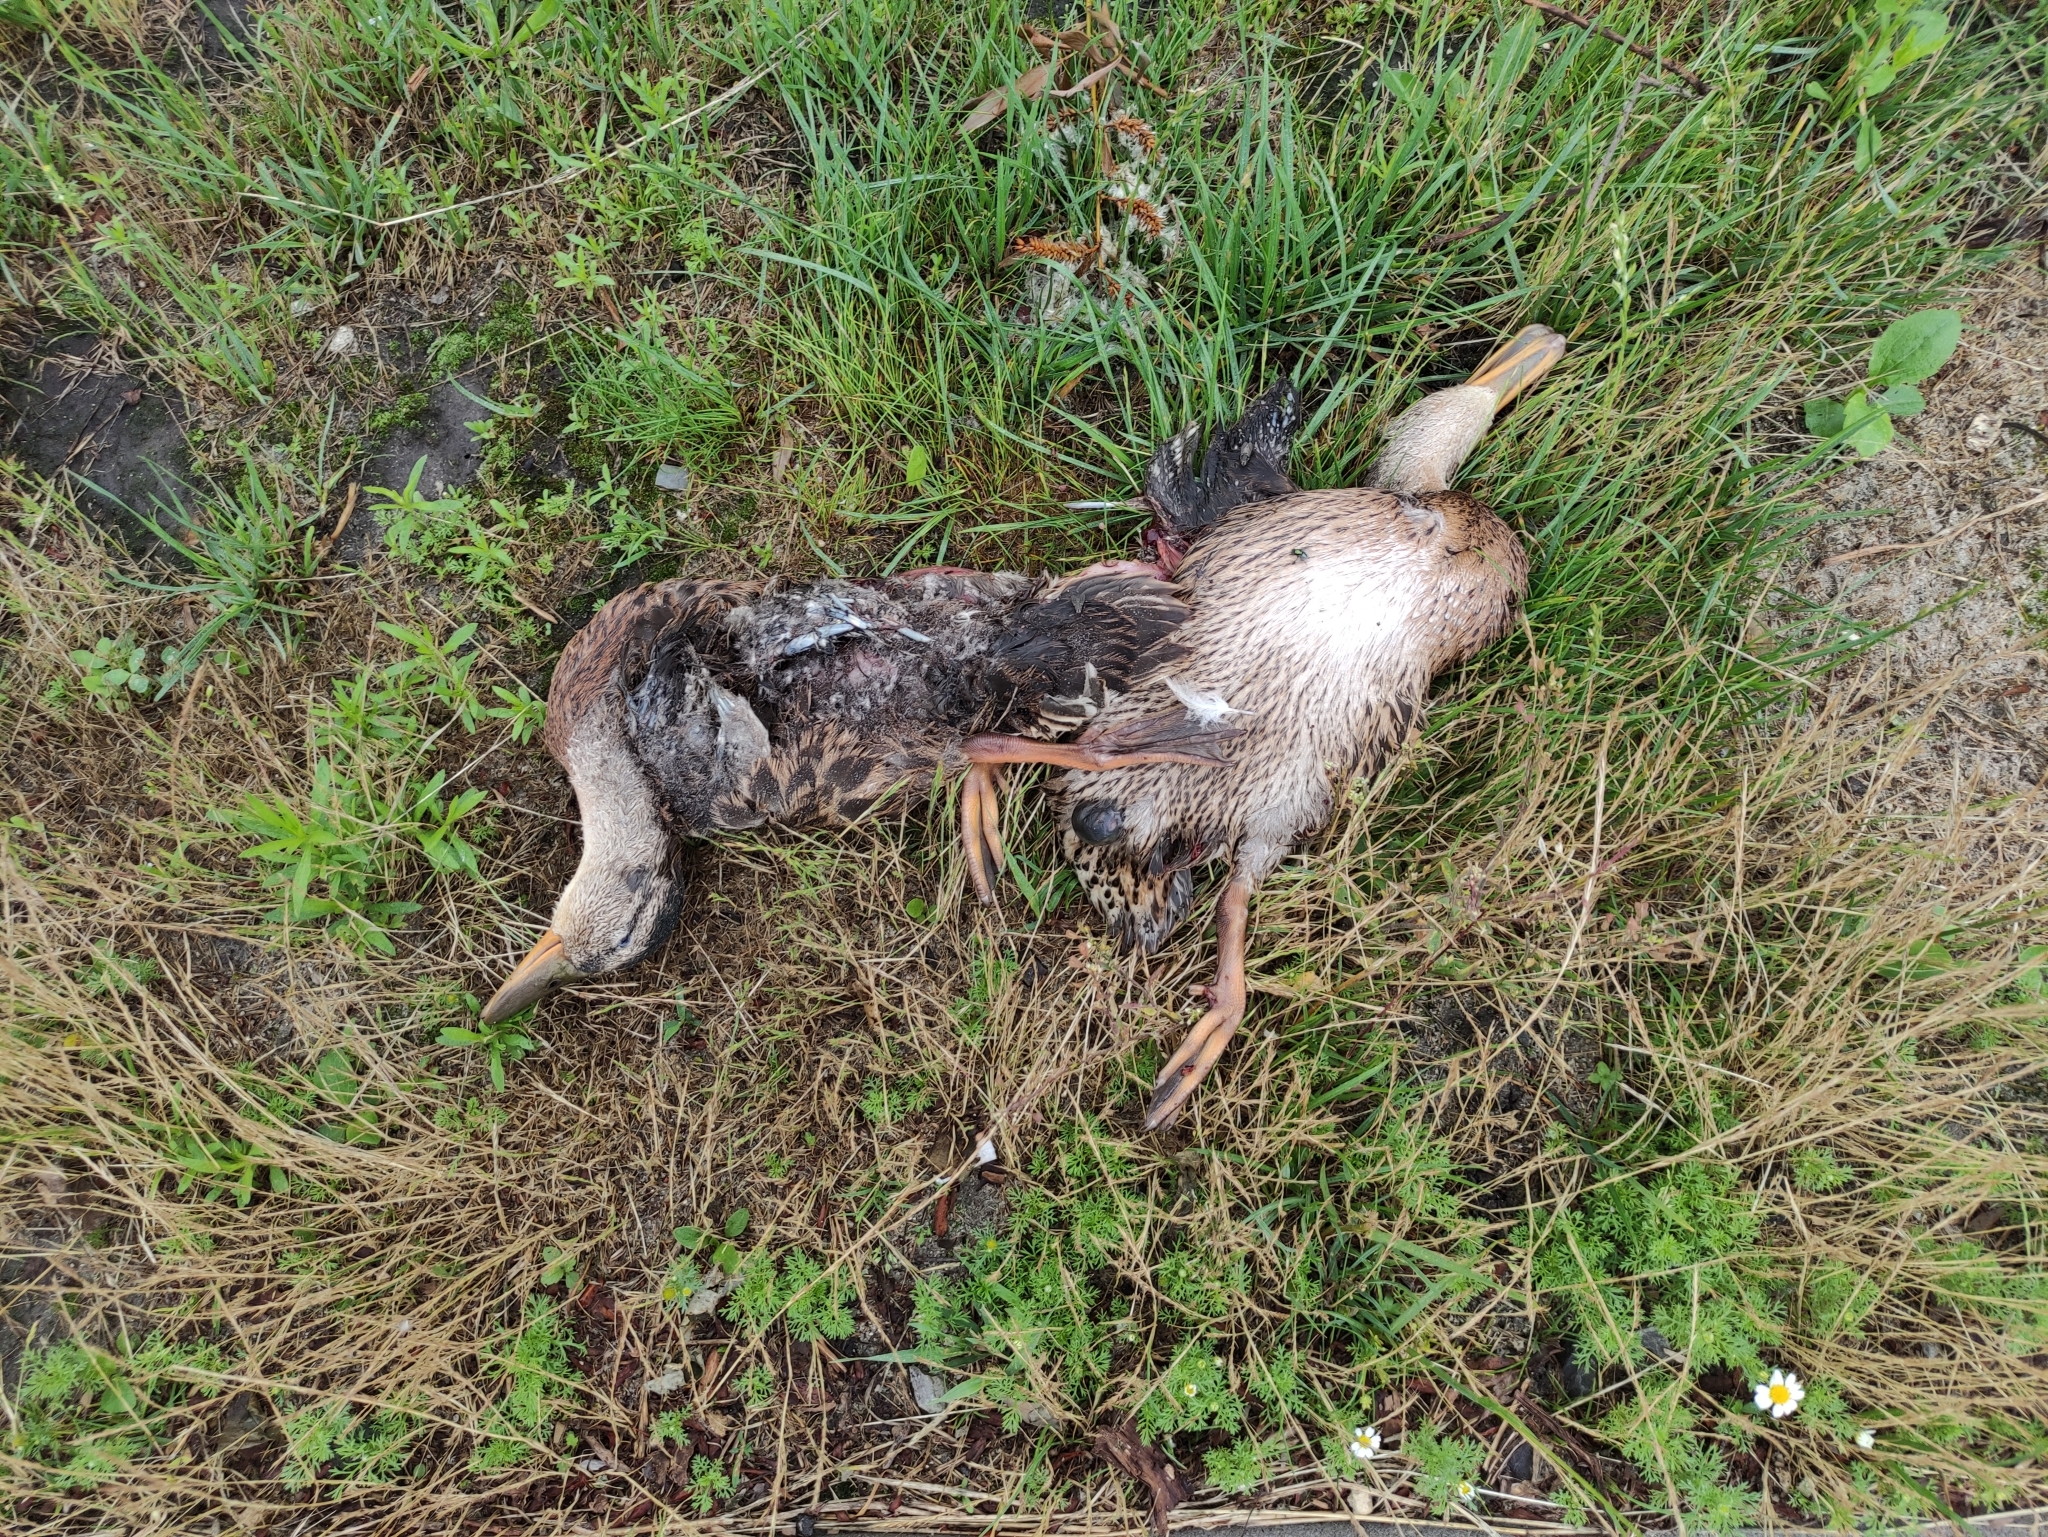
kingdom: Animalia
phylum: Chordata
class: Aves
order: Anseriformes
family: Anatidae
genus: Anas
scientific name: Anas platyrhynchos
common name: Mallard
